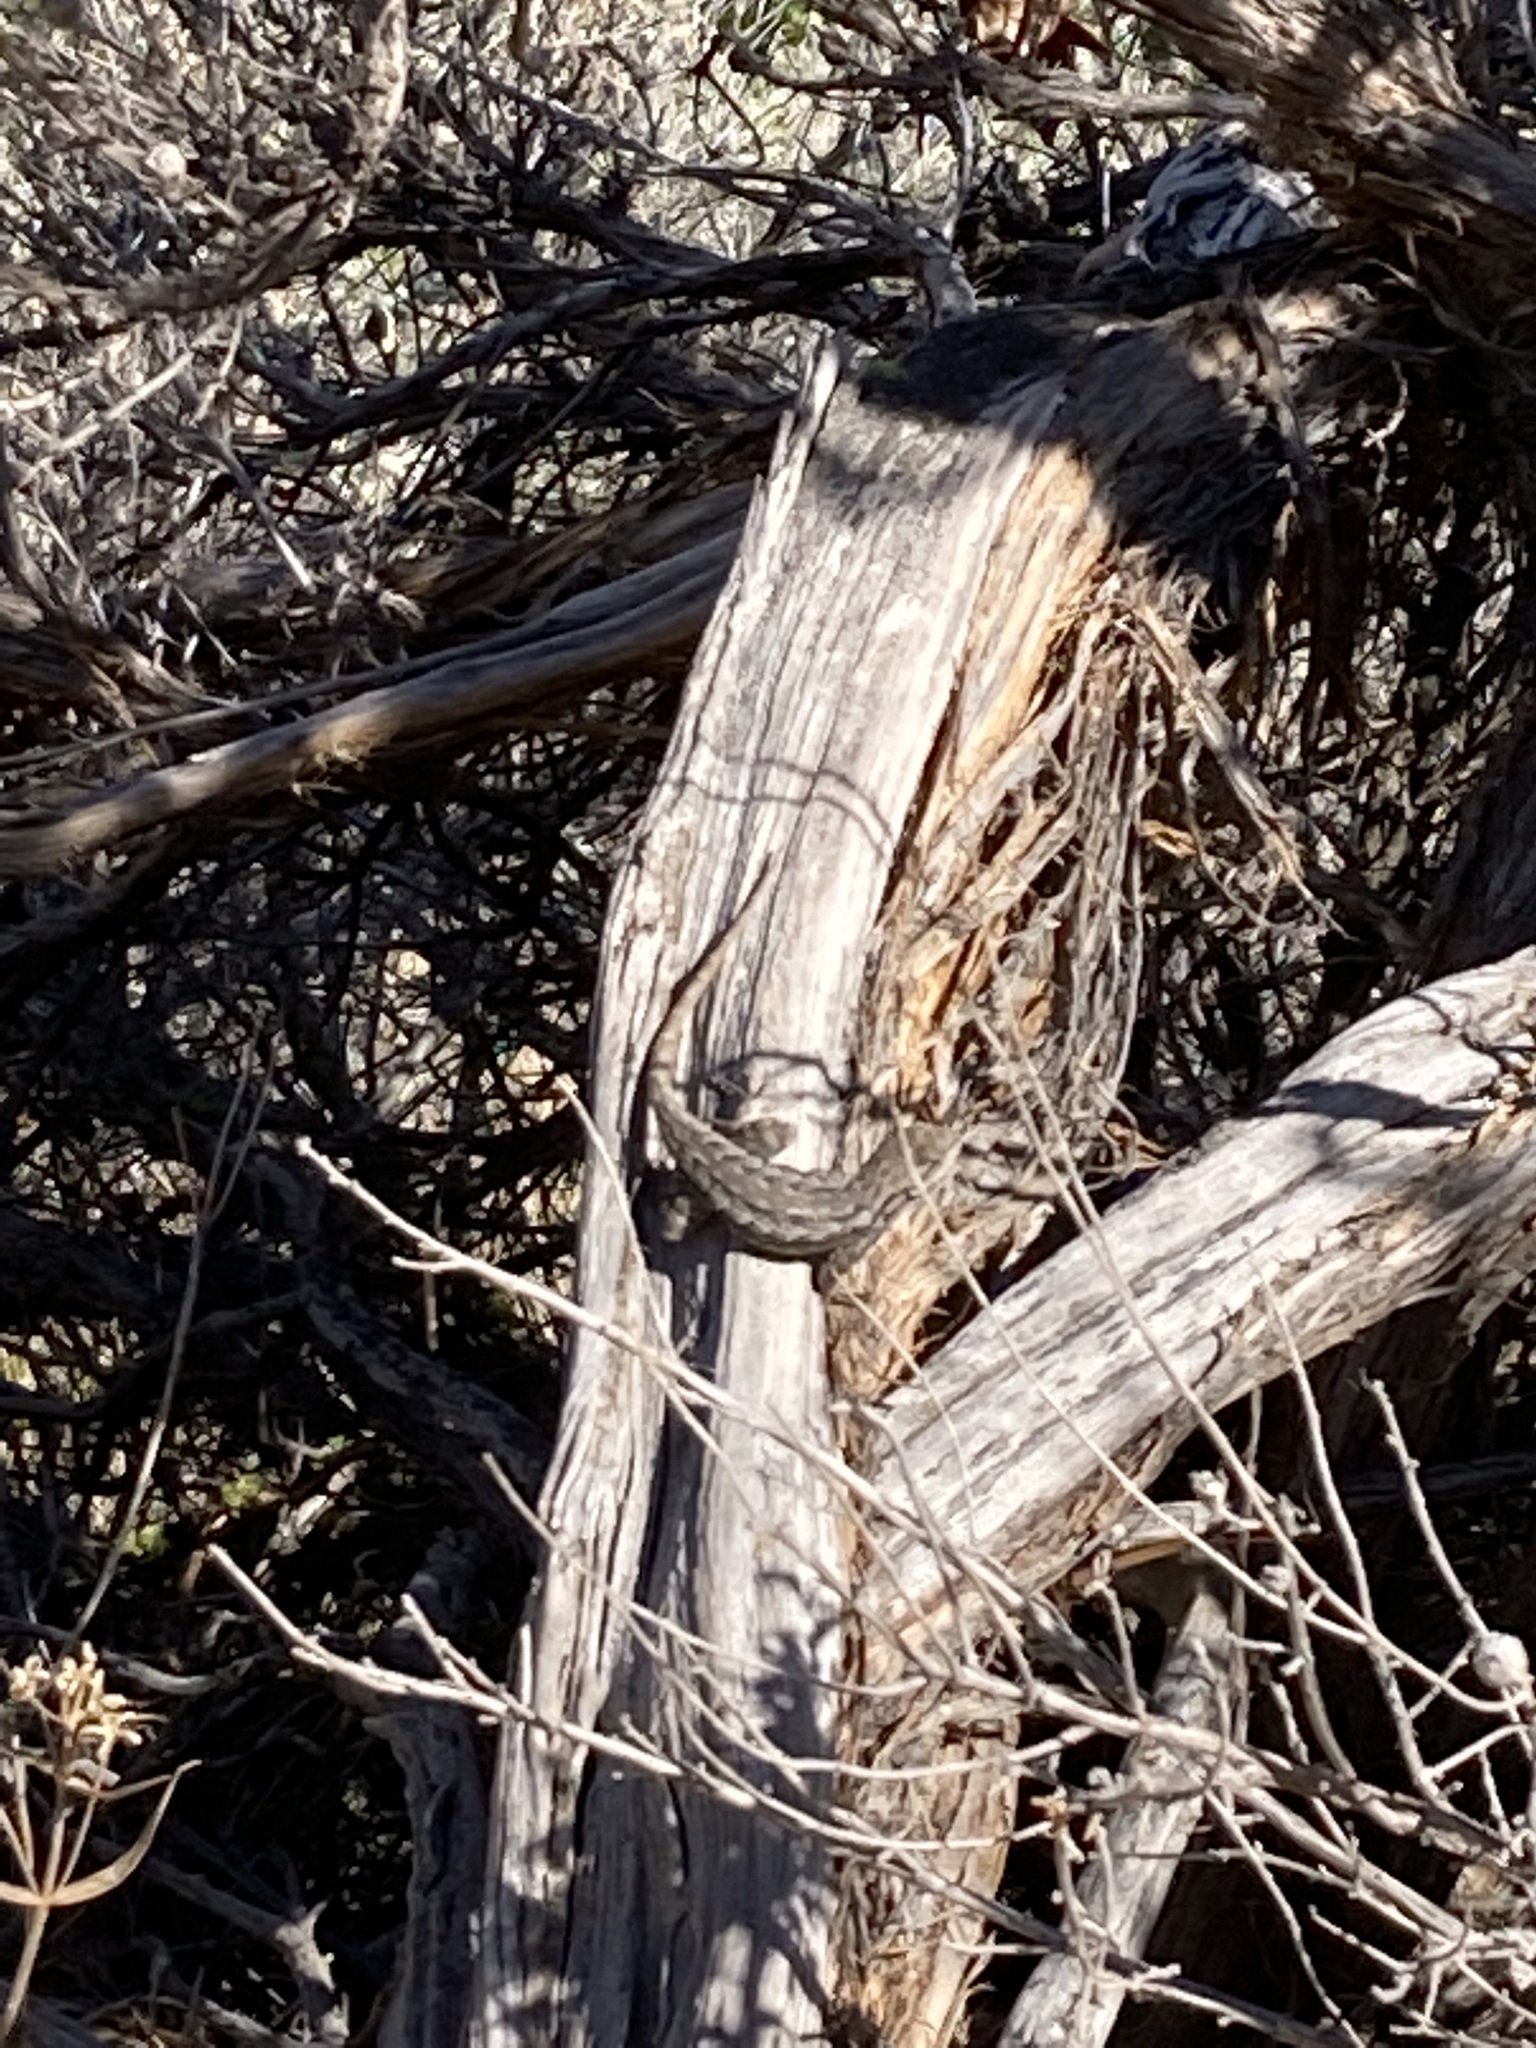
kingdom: Animalia
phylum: Chordata
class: Squamata
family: Phrynosomatidae
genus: Sceloporus
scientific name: Sceloporus occidentalis
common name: Western fence lizard
